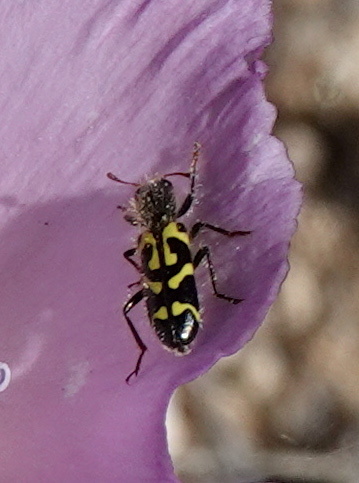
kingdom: Animalia
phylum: Arthropoda
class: Insecta
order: Coleoptera
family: Cleridae
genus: Trichodes
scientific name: Trichodes ornatus
